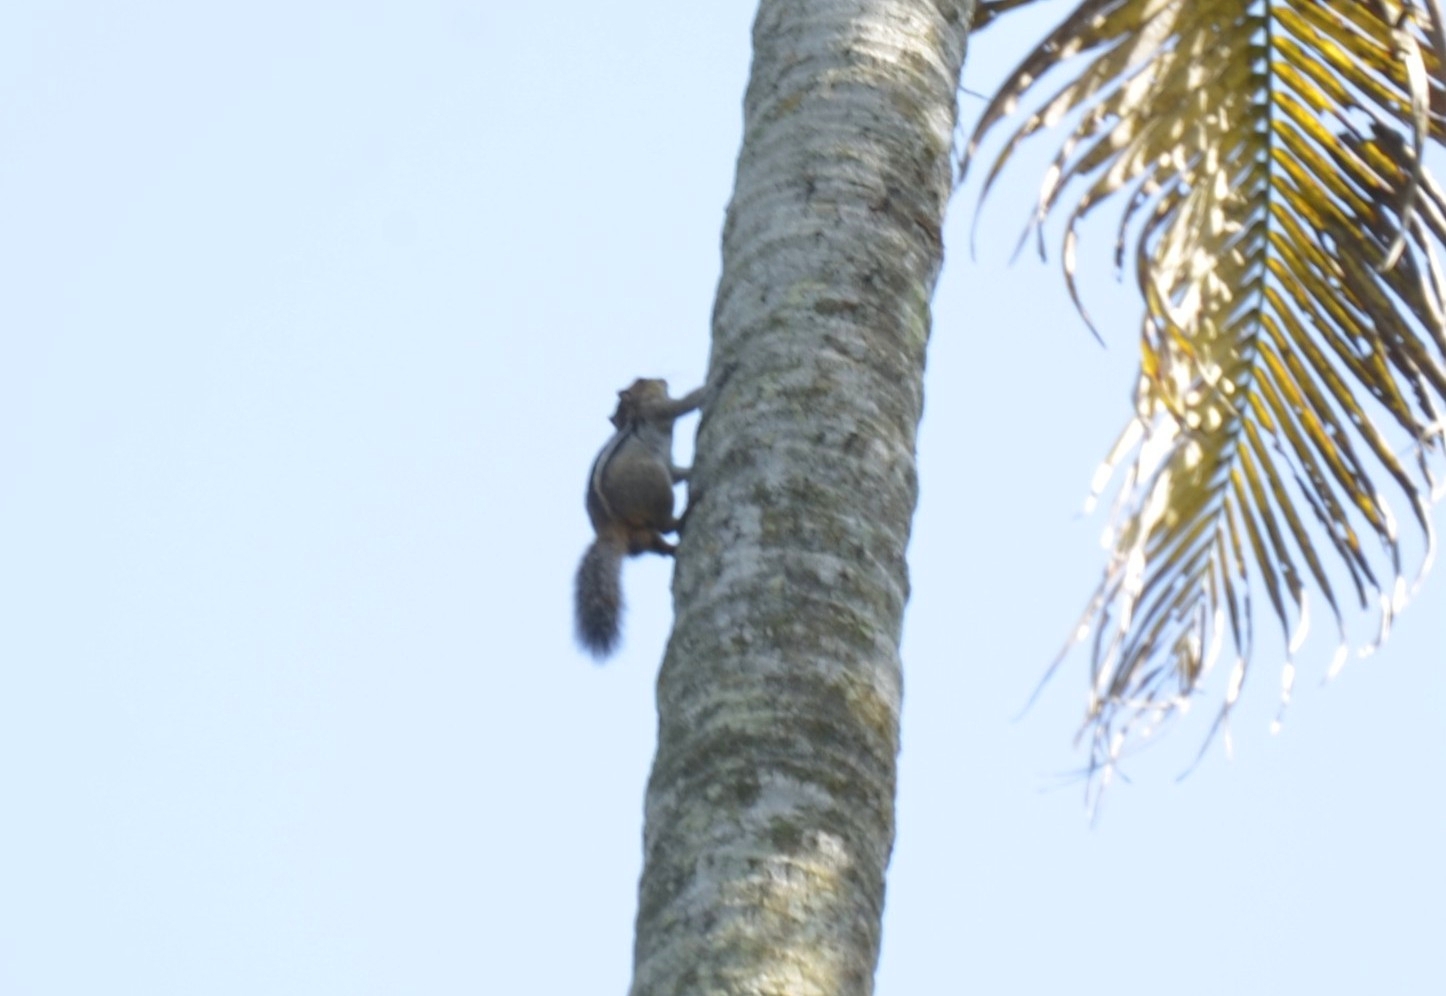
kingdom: Animalia
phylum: Chordata
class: Mammalia
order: Rodentia
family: Sciuridae
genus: Funambulus
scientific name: Funambulus tristriatus
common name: Jungle palm squirrel
